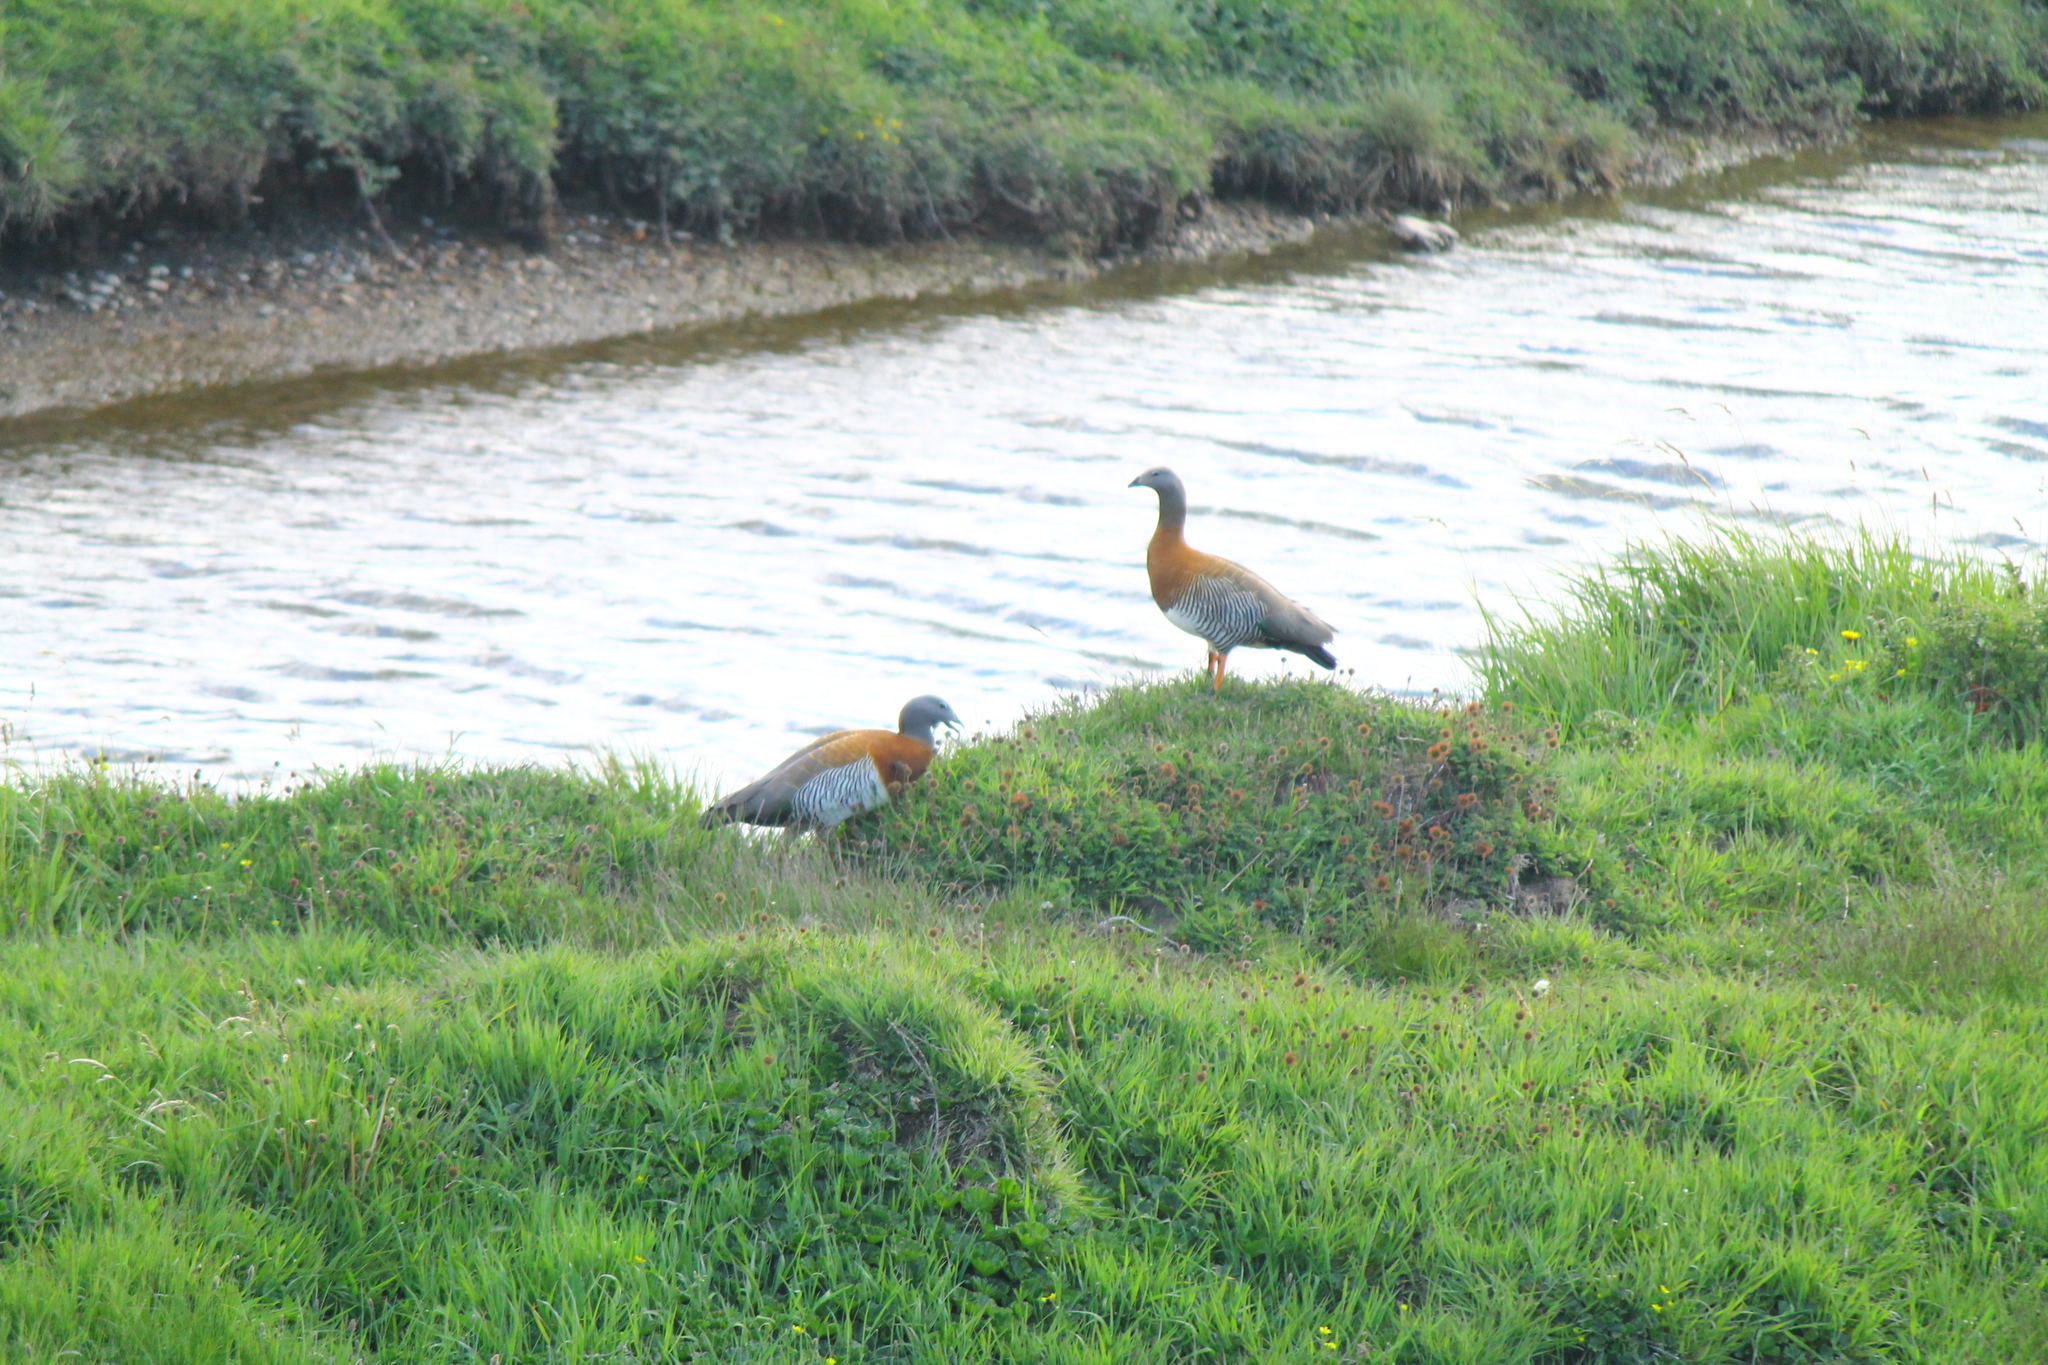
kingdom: Animalia
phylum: Chordata
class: Aves
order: Anseriformes
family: Anatidae
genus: Chloephaga
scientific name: Chloephaga poliocephala
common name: Ashy-headed goose
